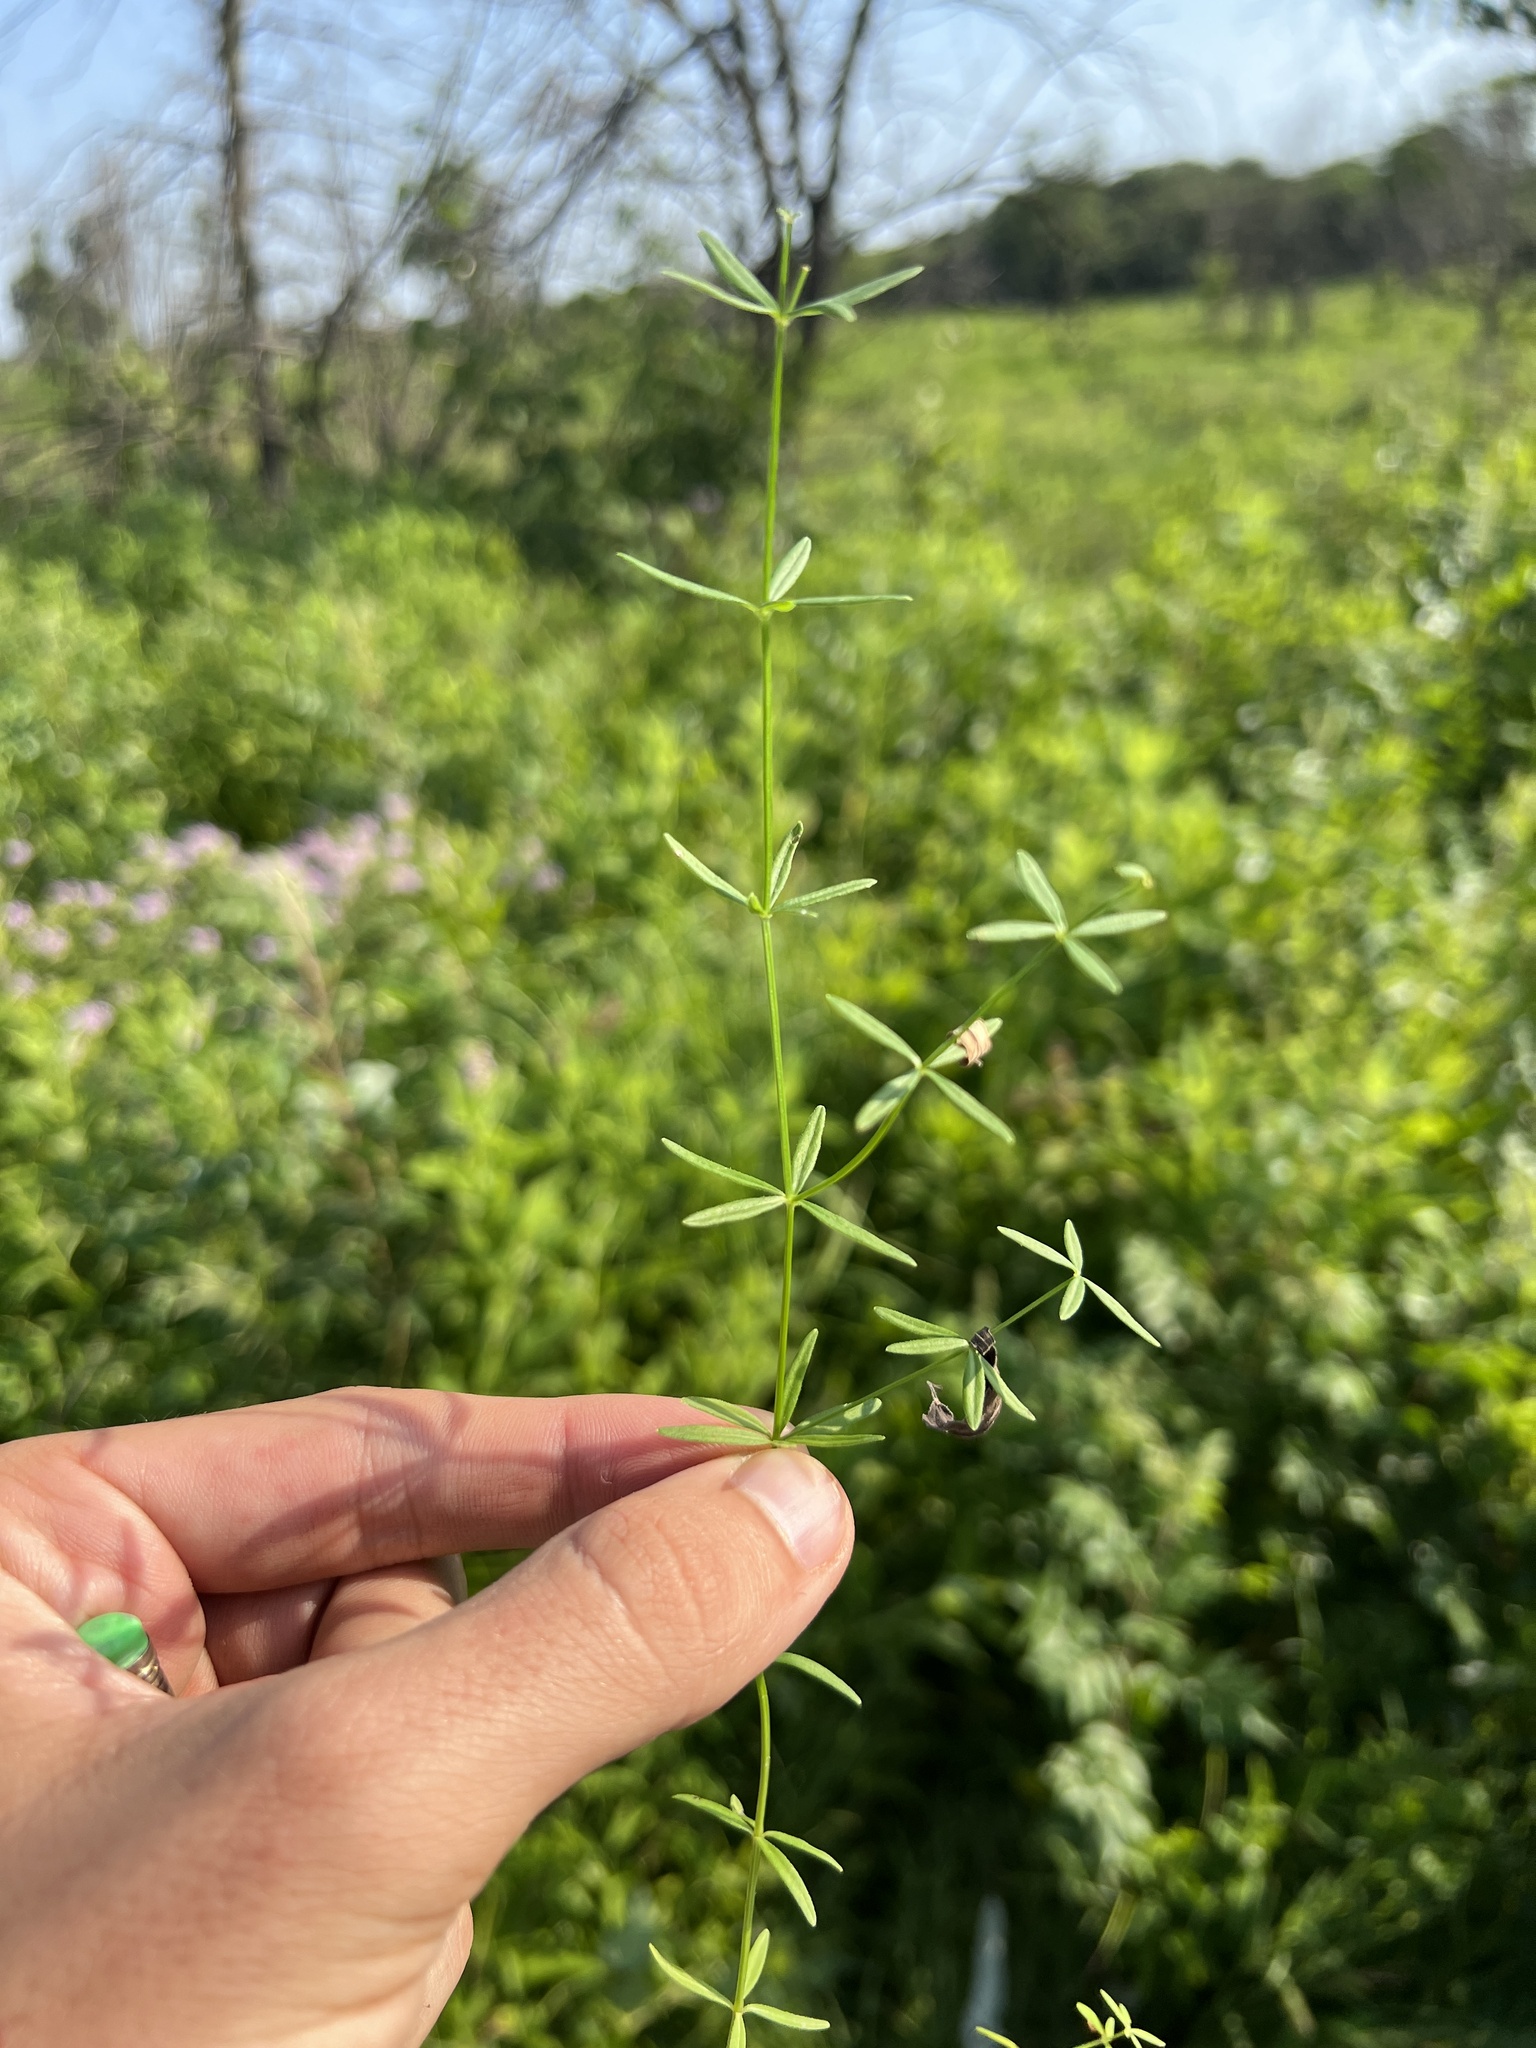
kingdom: Plantae
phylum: Tracheophyta
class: Magnoliopsida
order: Gentianales
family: Rubiaceae
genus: Galium
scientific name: Galium obtusum
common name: Blunt-leaved bedstraw
